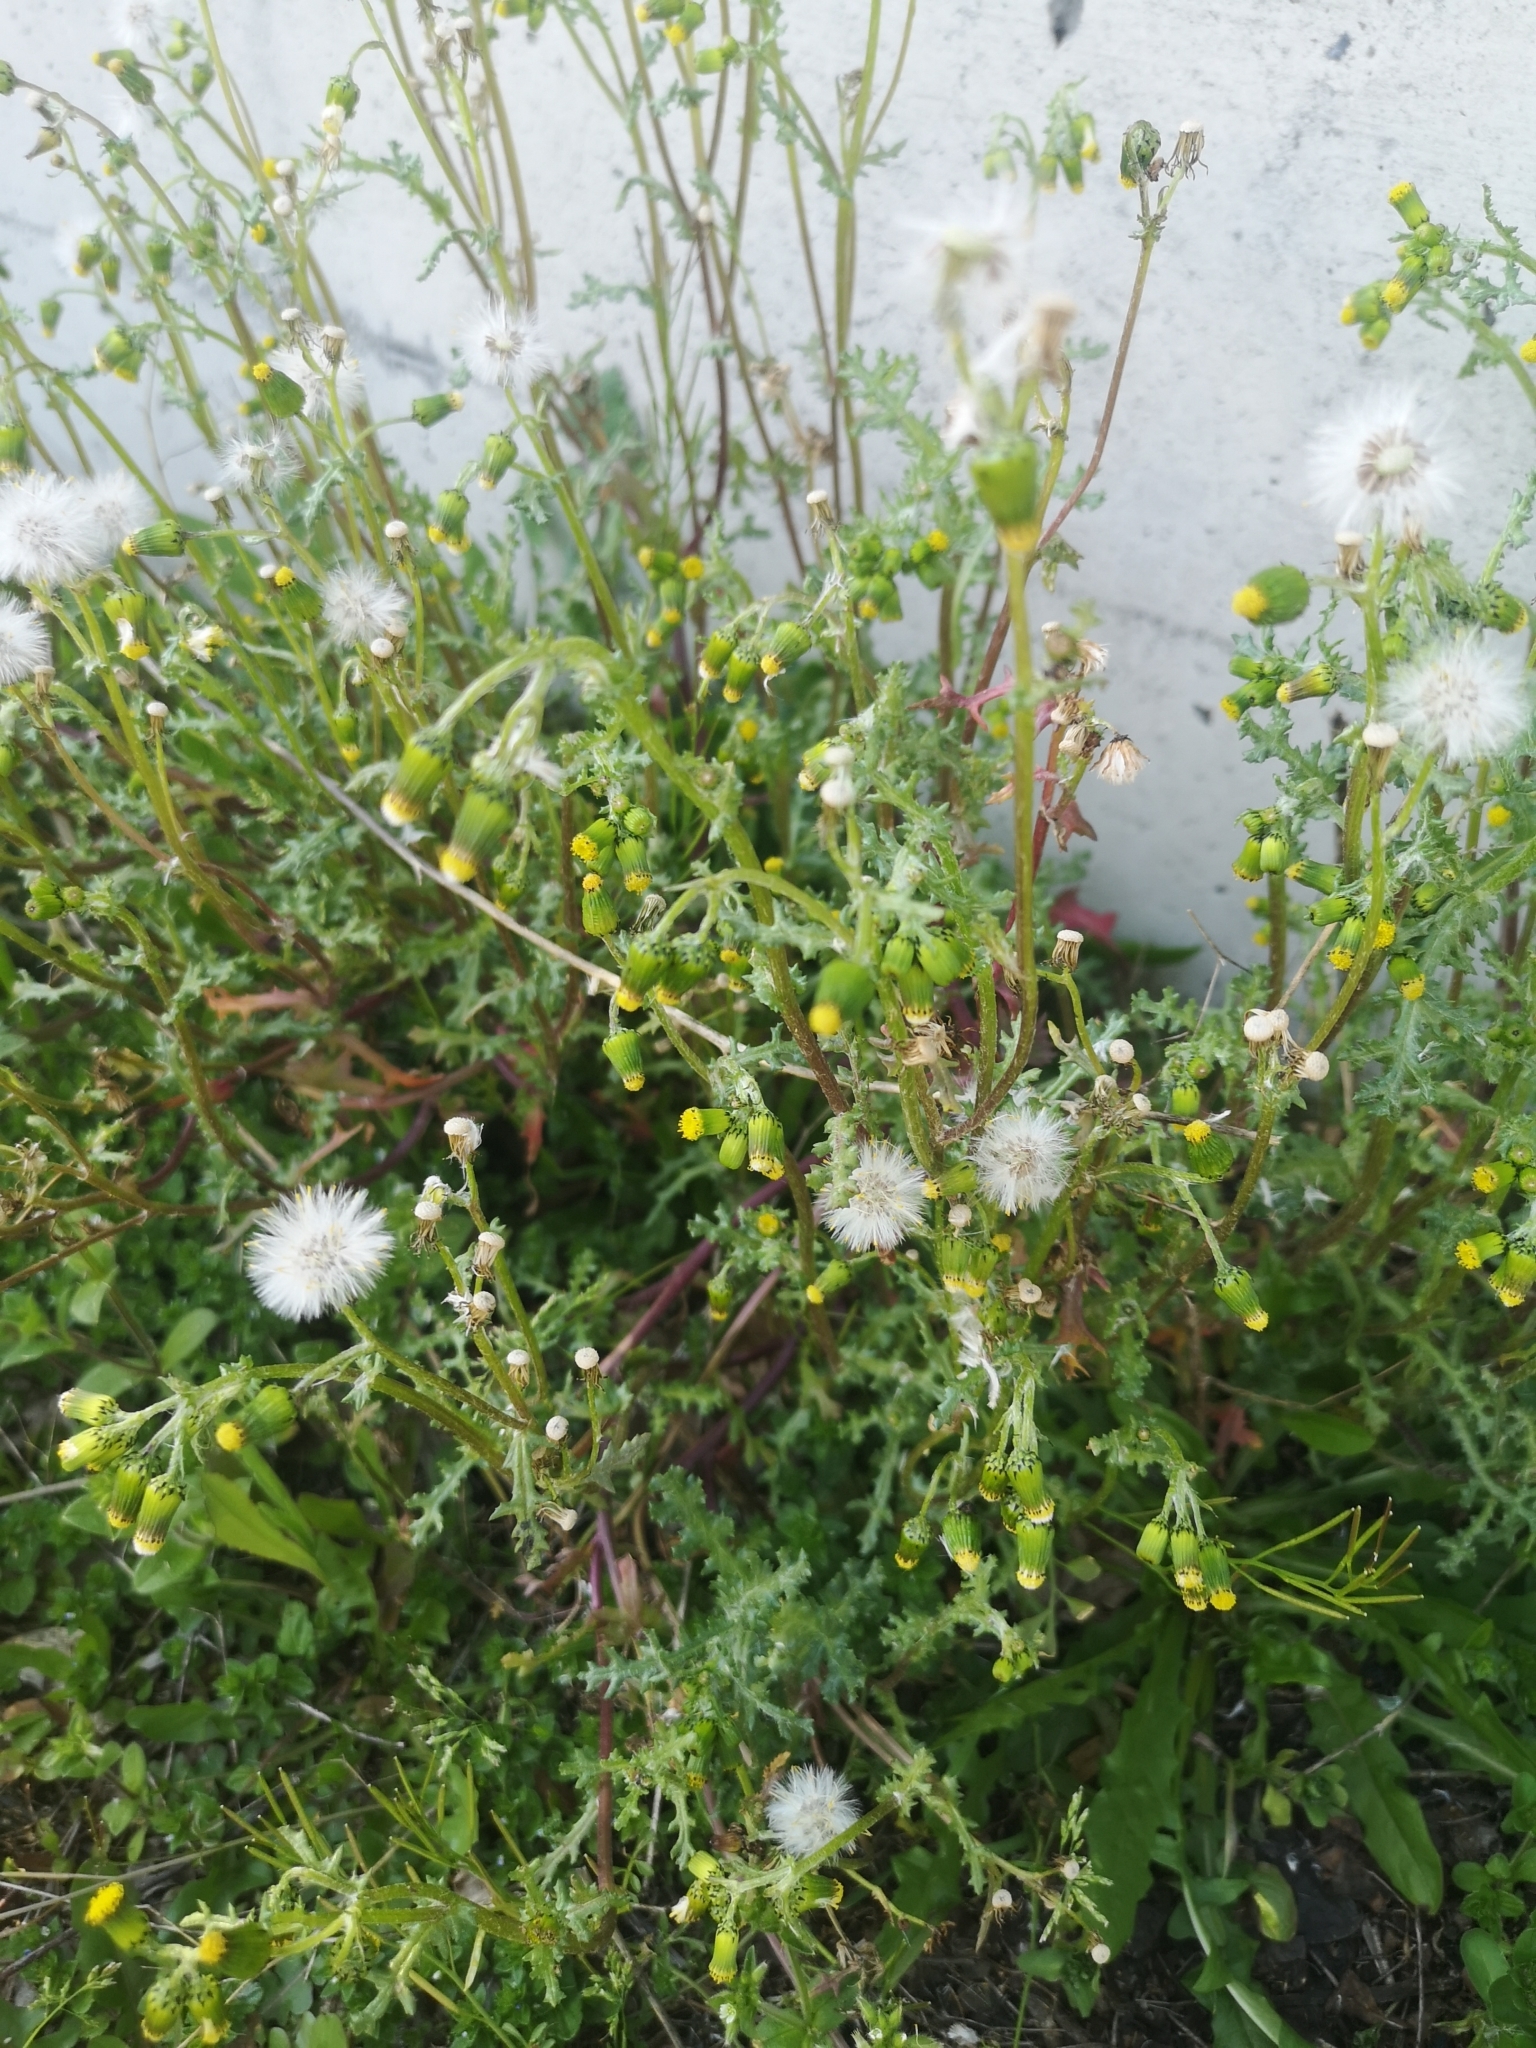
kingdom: Plantae
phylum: Tracheophyta
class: Magnoliopsida
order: Asterales
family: Asteraceae
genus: Senecio
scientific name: Senecio vulgaris
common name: Old-man-in-the-spring
